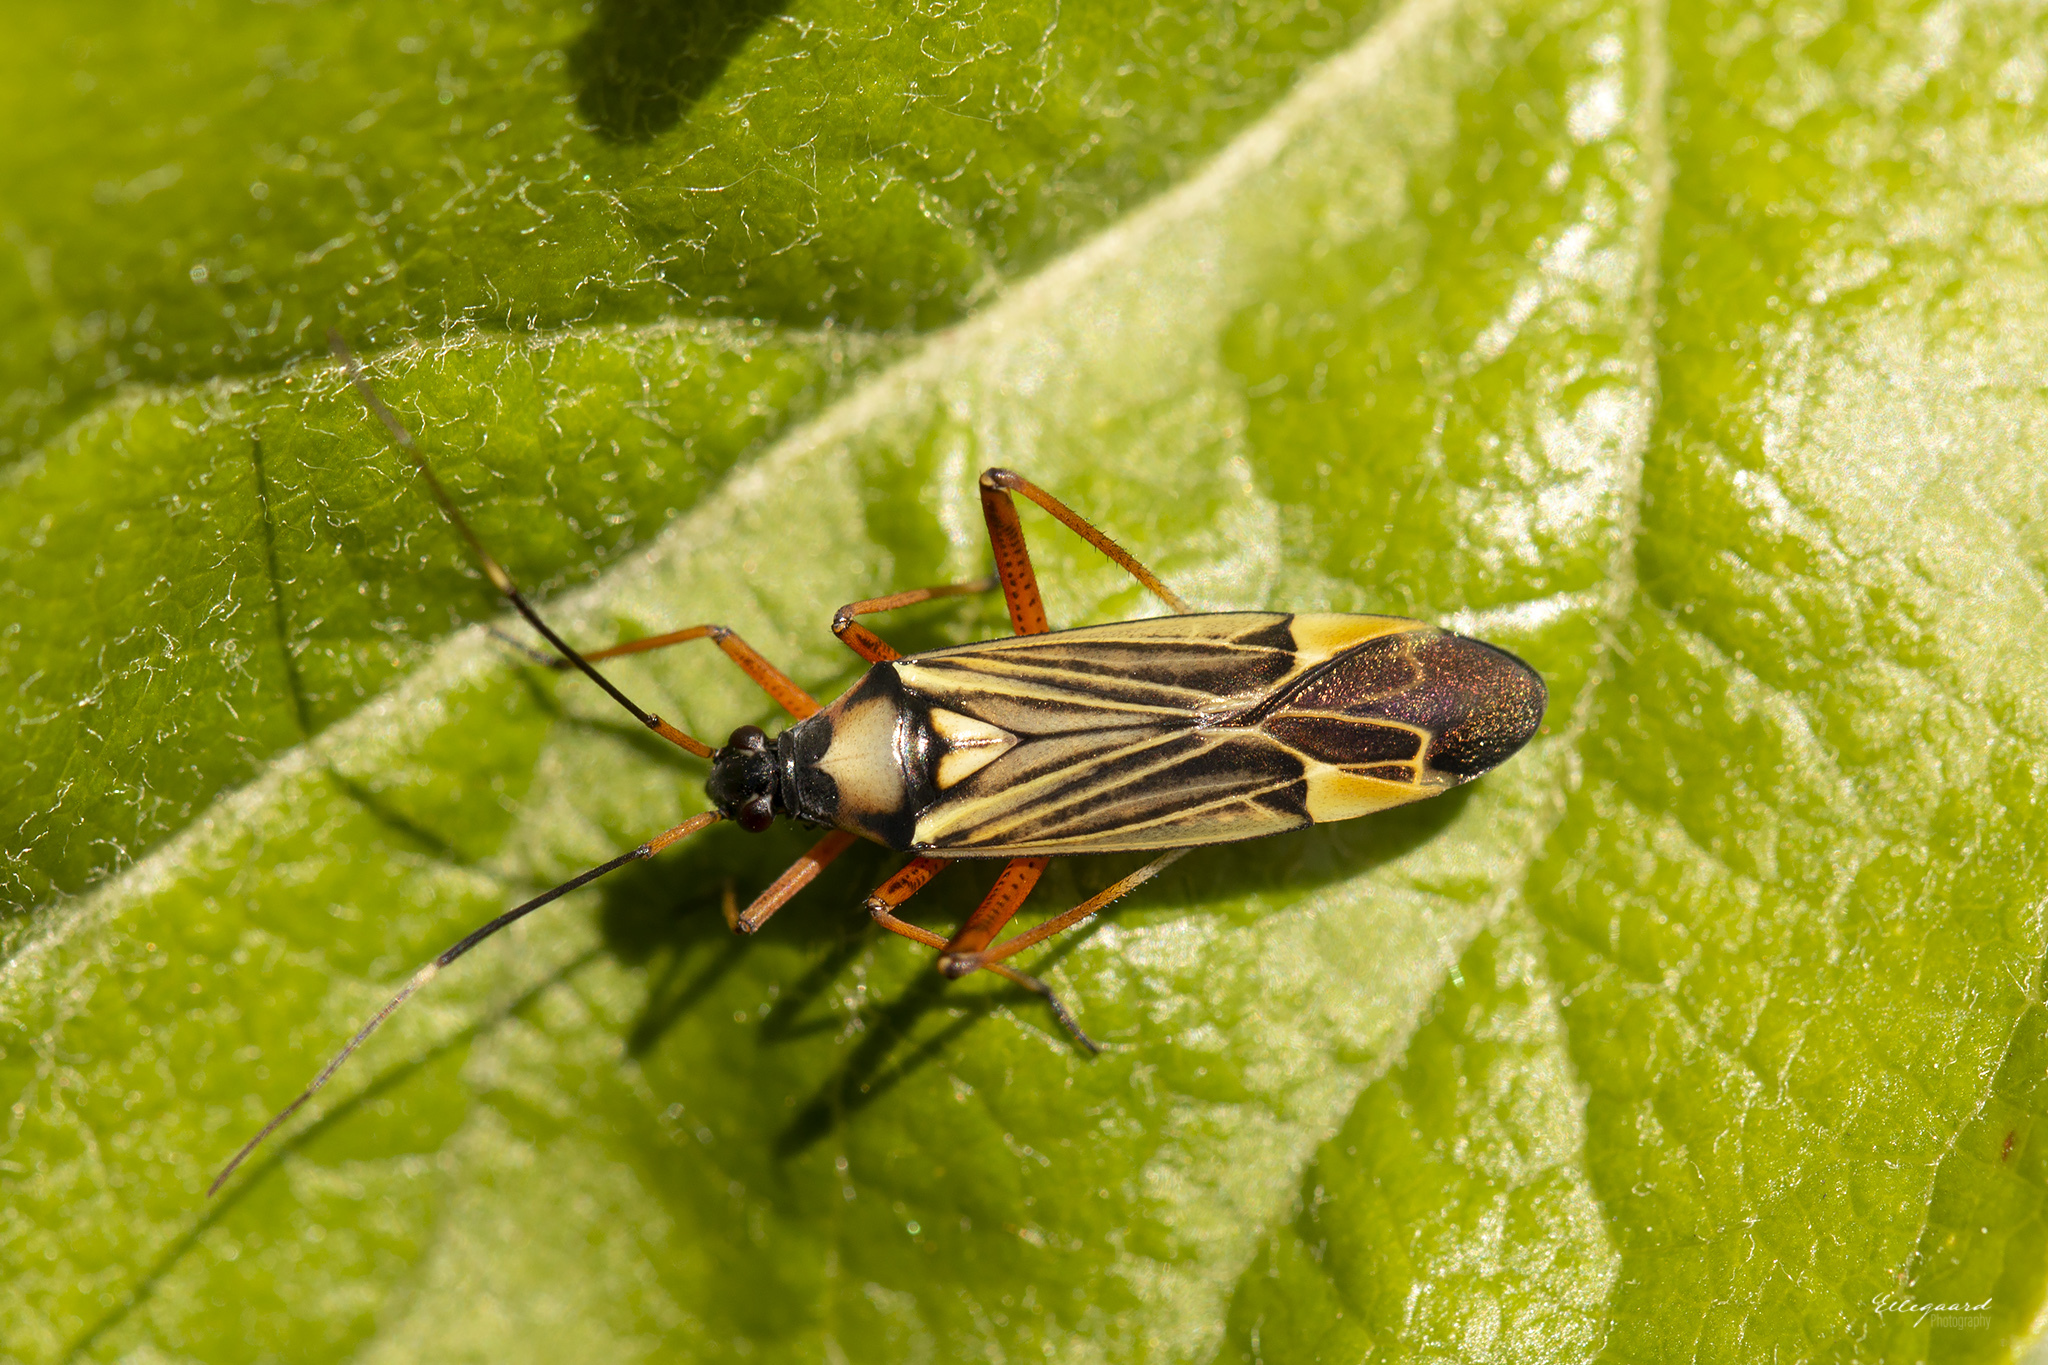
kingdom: Animalia
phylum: Arthropoda
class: Insecta
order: Hemiptera
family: Miridae
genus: Miris
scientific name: Miris striatus
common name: Fine streaked bugkin
